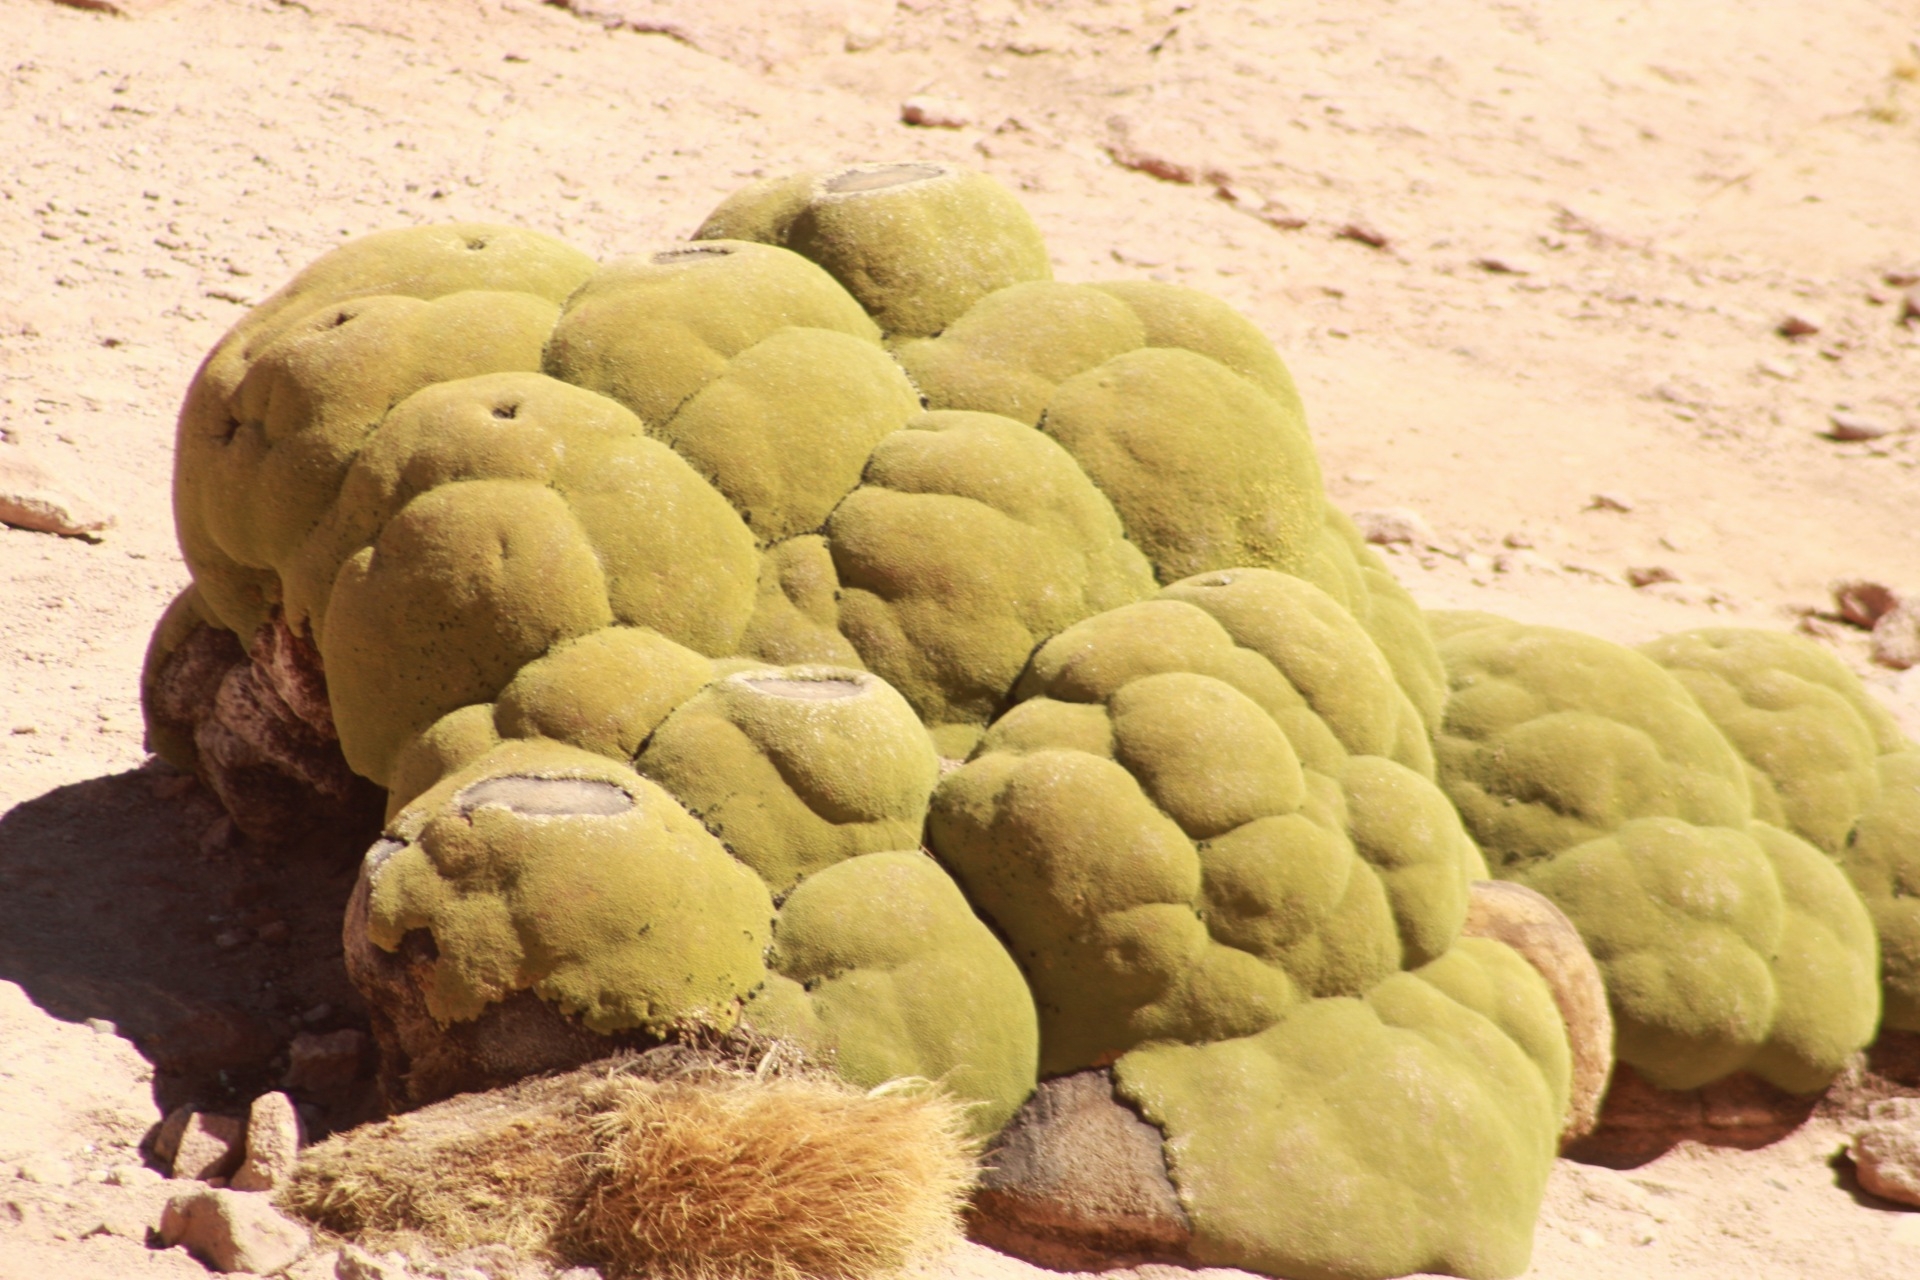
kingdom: Plantae
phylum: Tracheophyta
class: Magnoliopsida
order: Apiales
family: Apiaceae
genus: Azorella
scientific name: Azorella compacta
